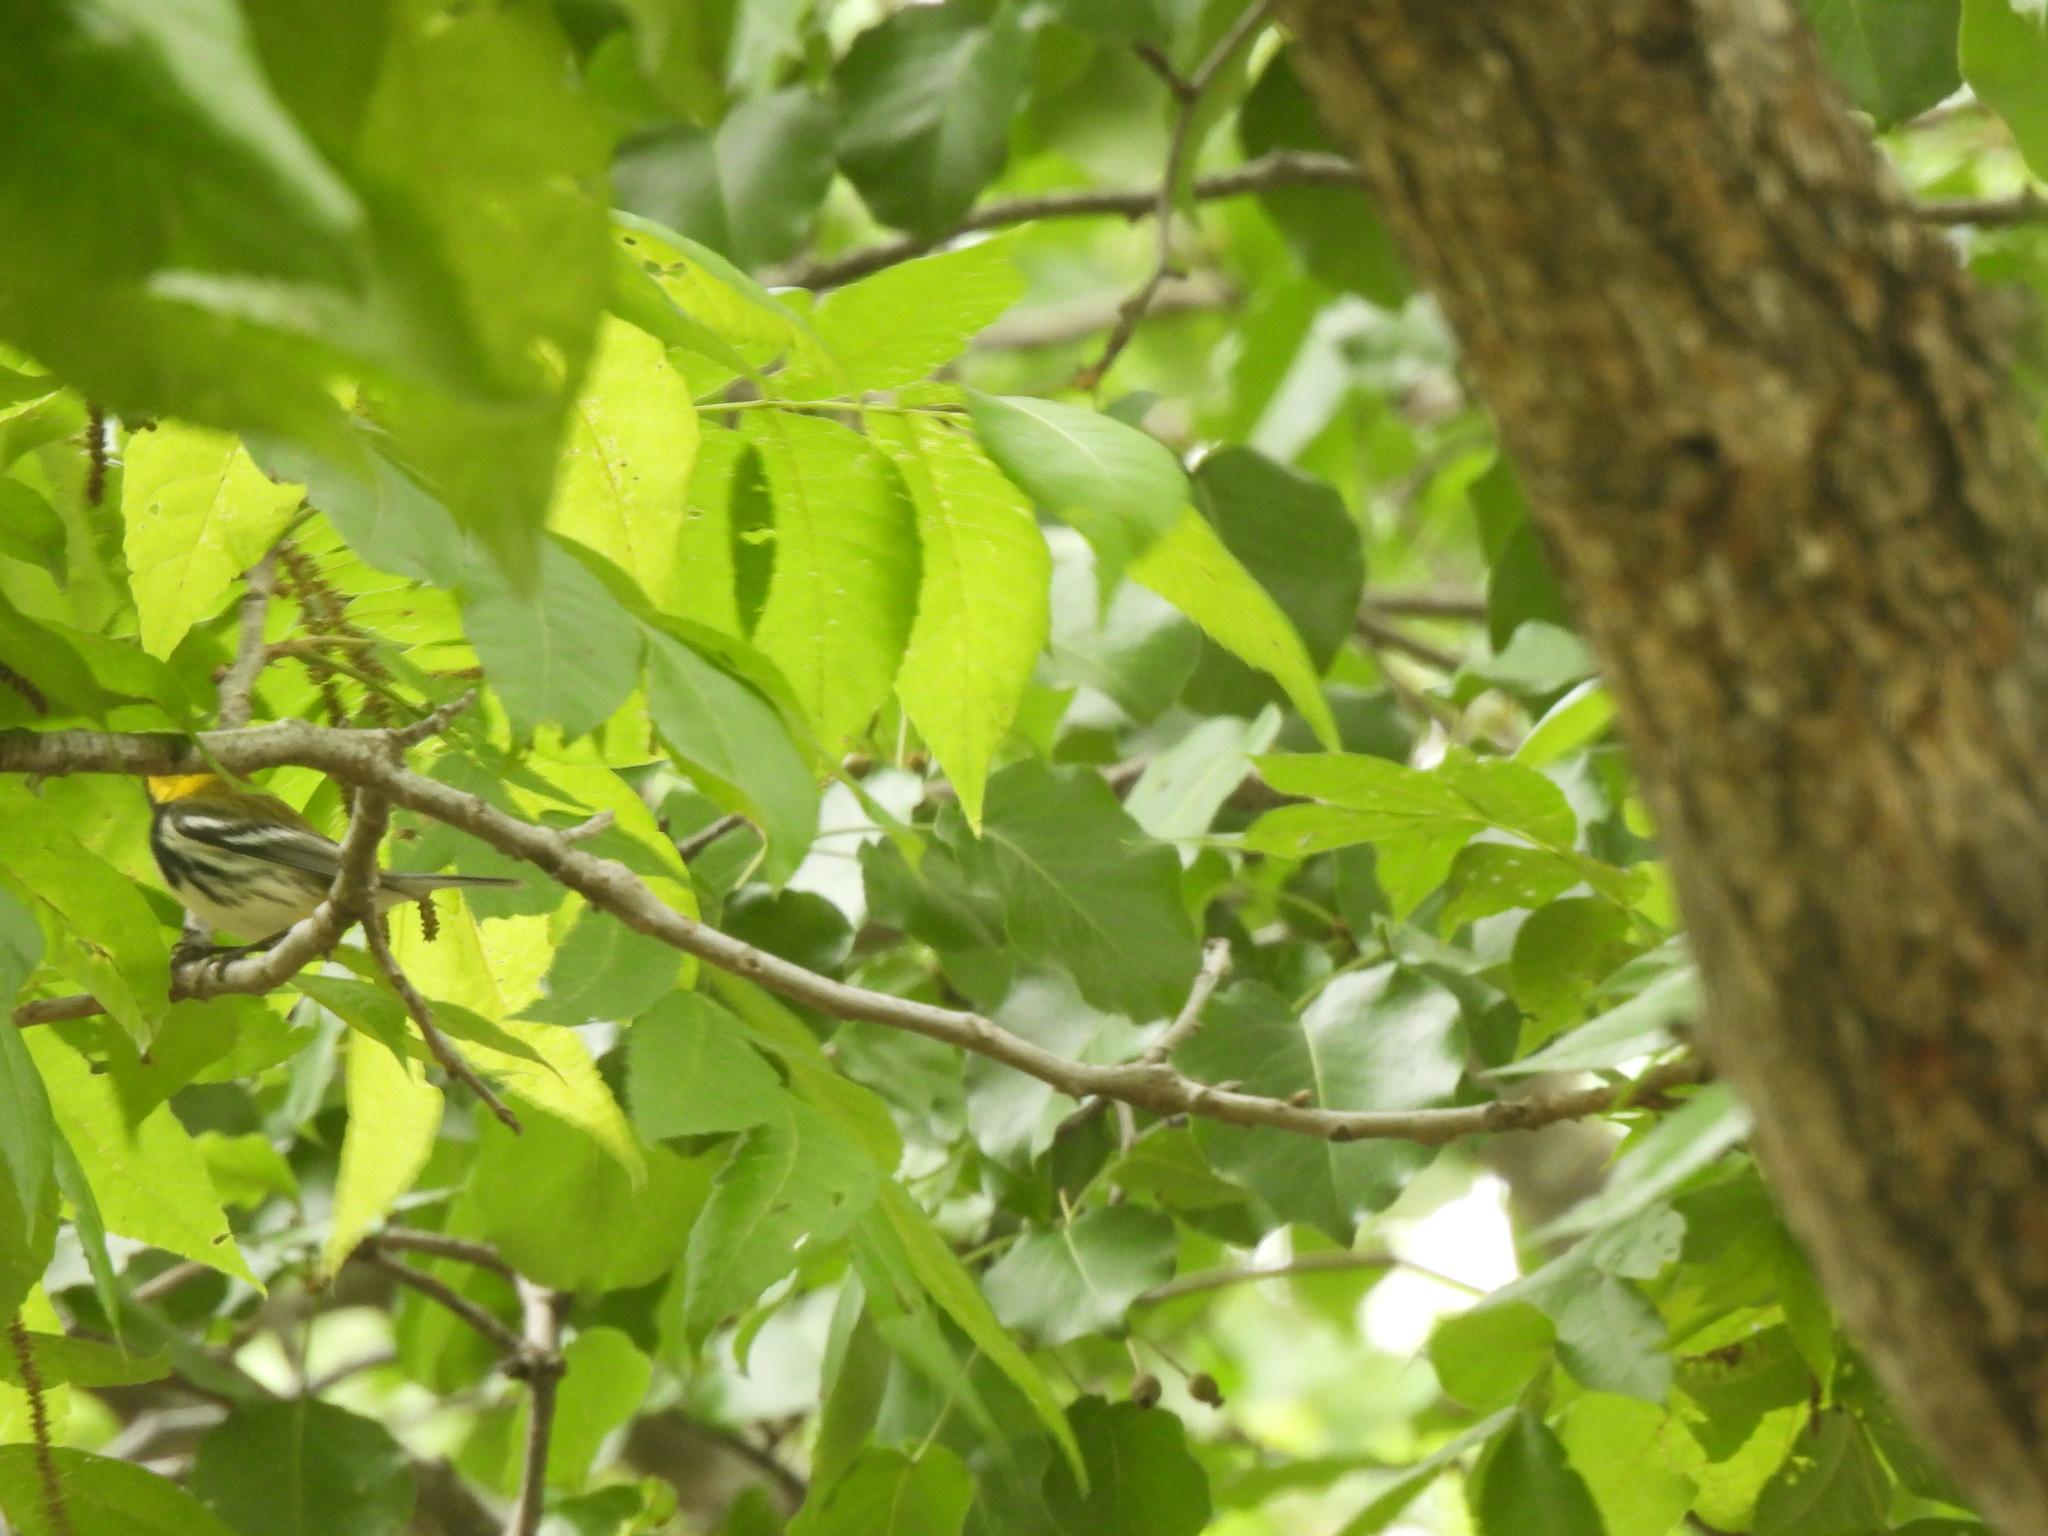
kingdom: Animalia
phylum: Chordata
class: Aves
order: Passeriformes
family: Parulidae
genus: Setophaga
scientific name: Setophaga virens
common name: Black-throated green warbler
